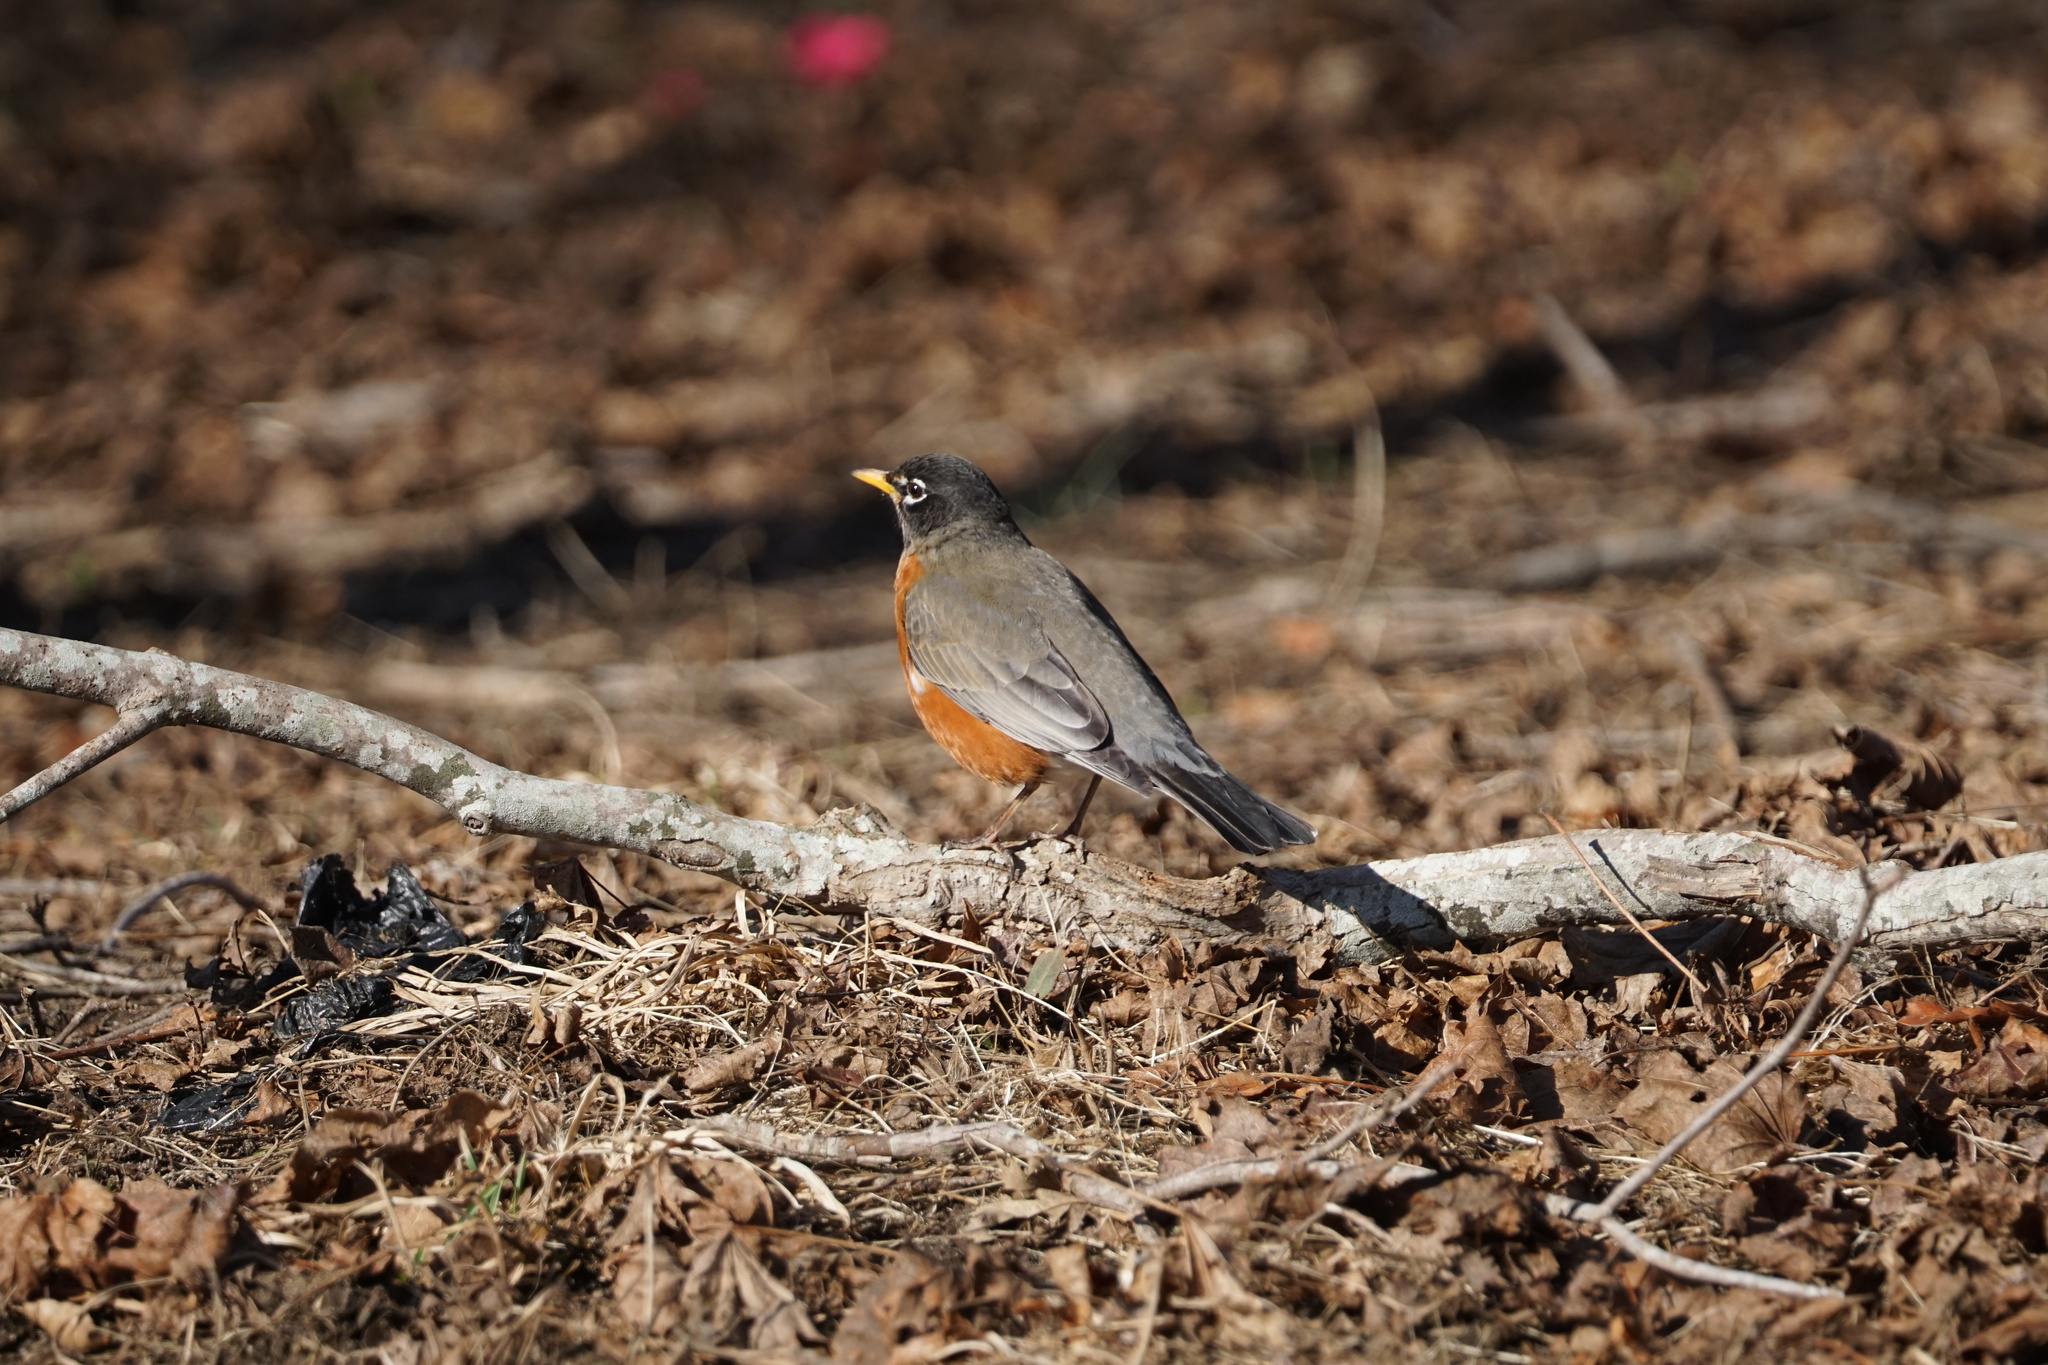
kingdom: Animalia
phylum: Chordata
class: Aves
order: Passeriformes
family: Turdidae
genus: Turdus
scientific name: Turdus migratorius
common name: American robin
